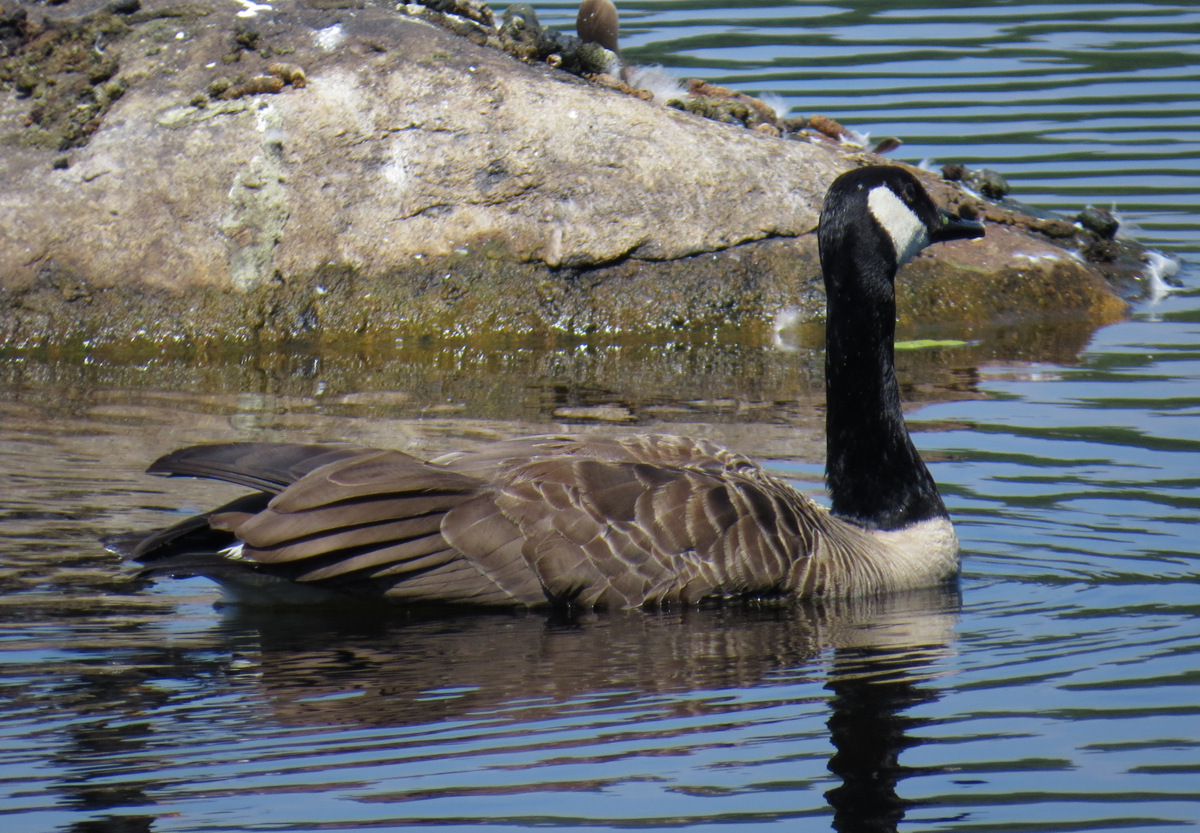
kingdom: Animalia
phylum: Chordata
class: Aves
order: Anseriformes
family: Anatidae
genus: Branta
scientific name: Branta canadensis
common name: Canada goose
